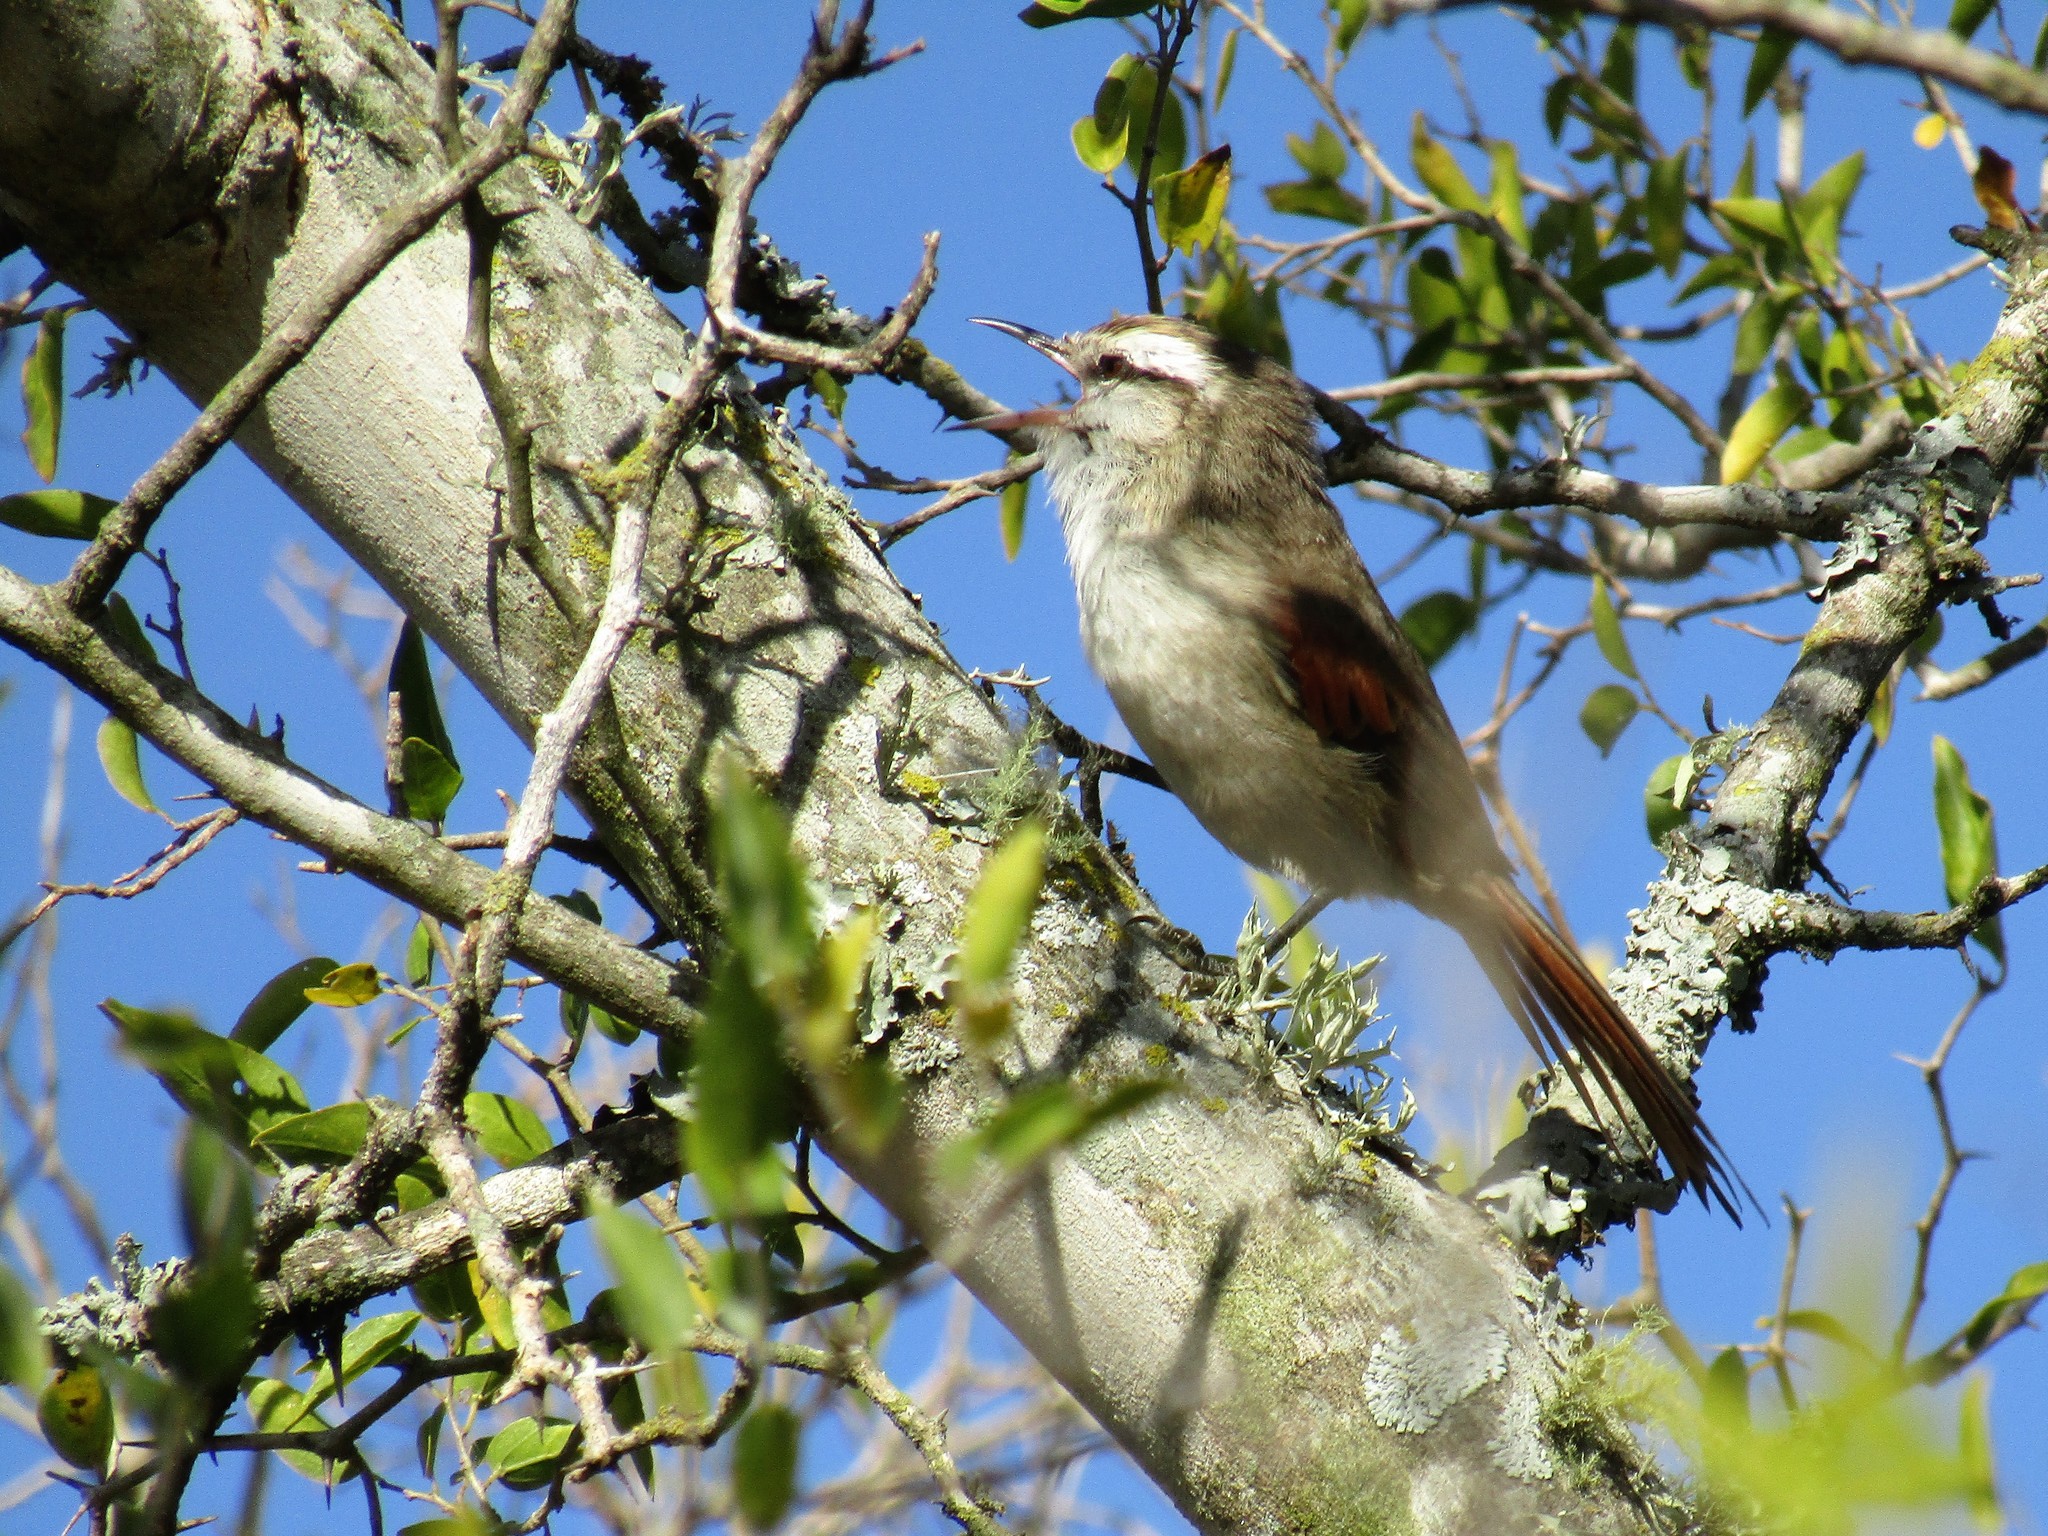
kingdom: Animalia
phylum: Chordata
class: Aves
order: Passeriformes
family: Furnariidae
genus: Cranioleuca
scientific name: Cranioleuca pyrrhophia
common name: Stripe-crowned spinetail
